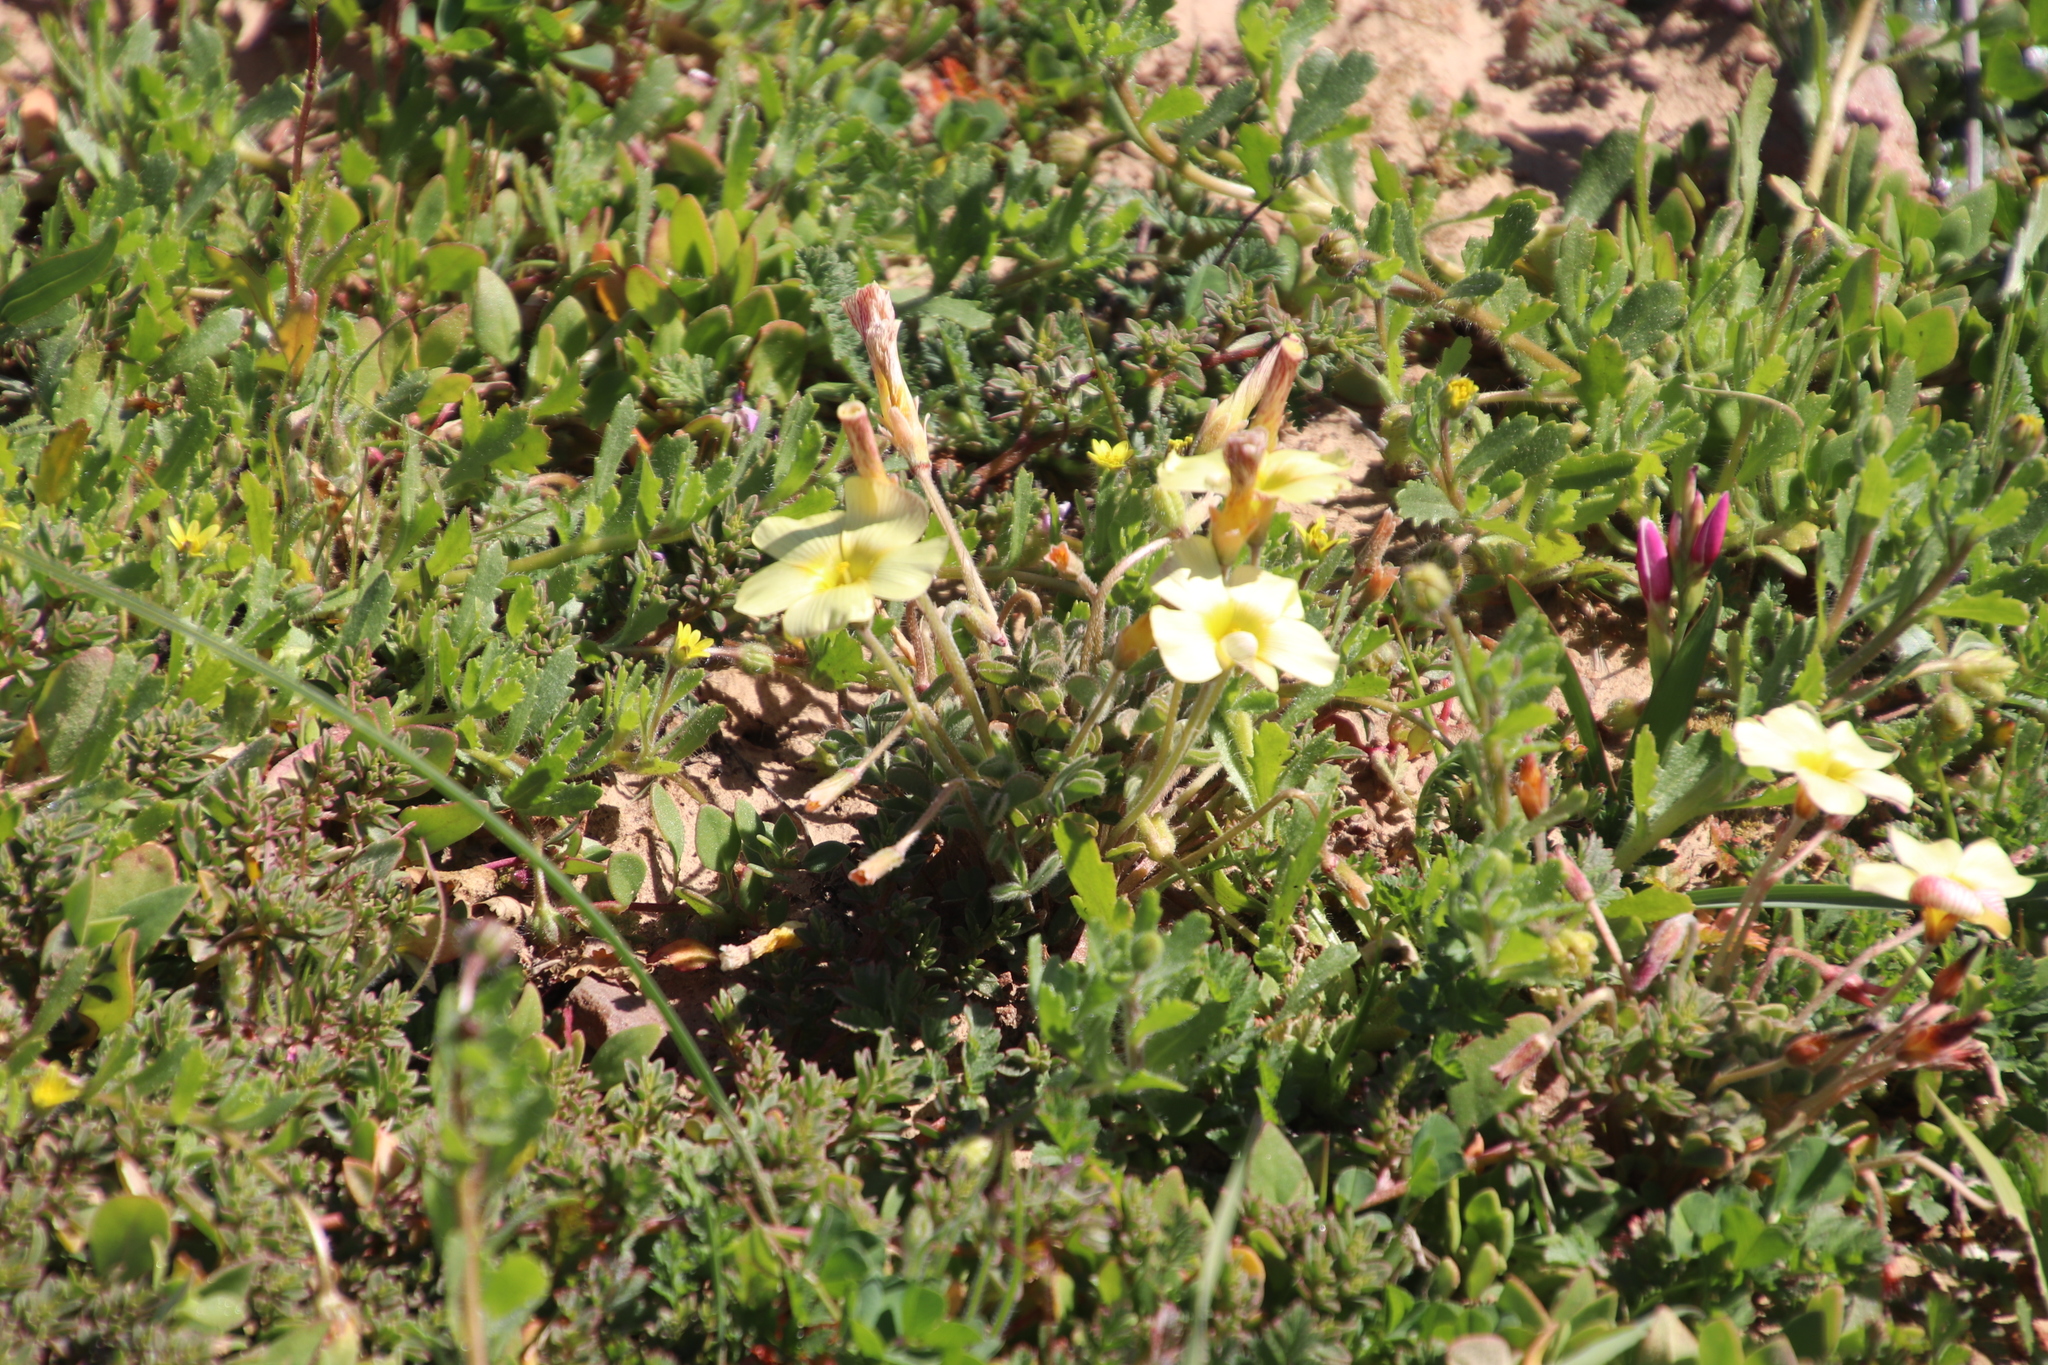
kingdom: Plantae
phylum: Tracheophyta
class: Magnoliopsida
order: Oxalidales
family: Oxalidaceae
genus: Oxalis
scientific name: Oxalis obtusa
